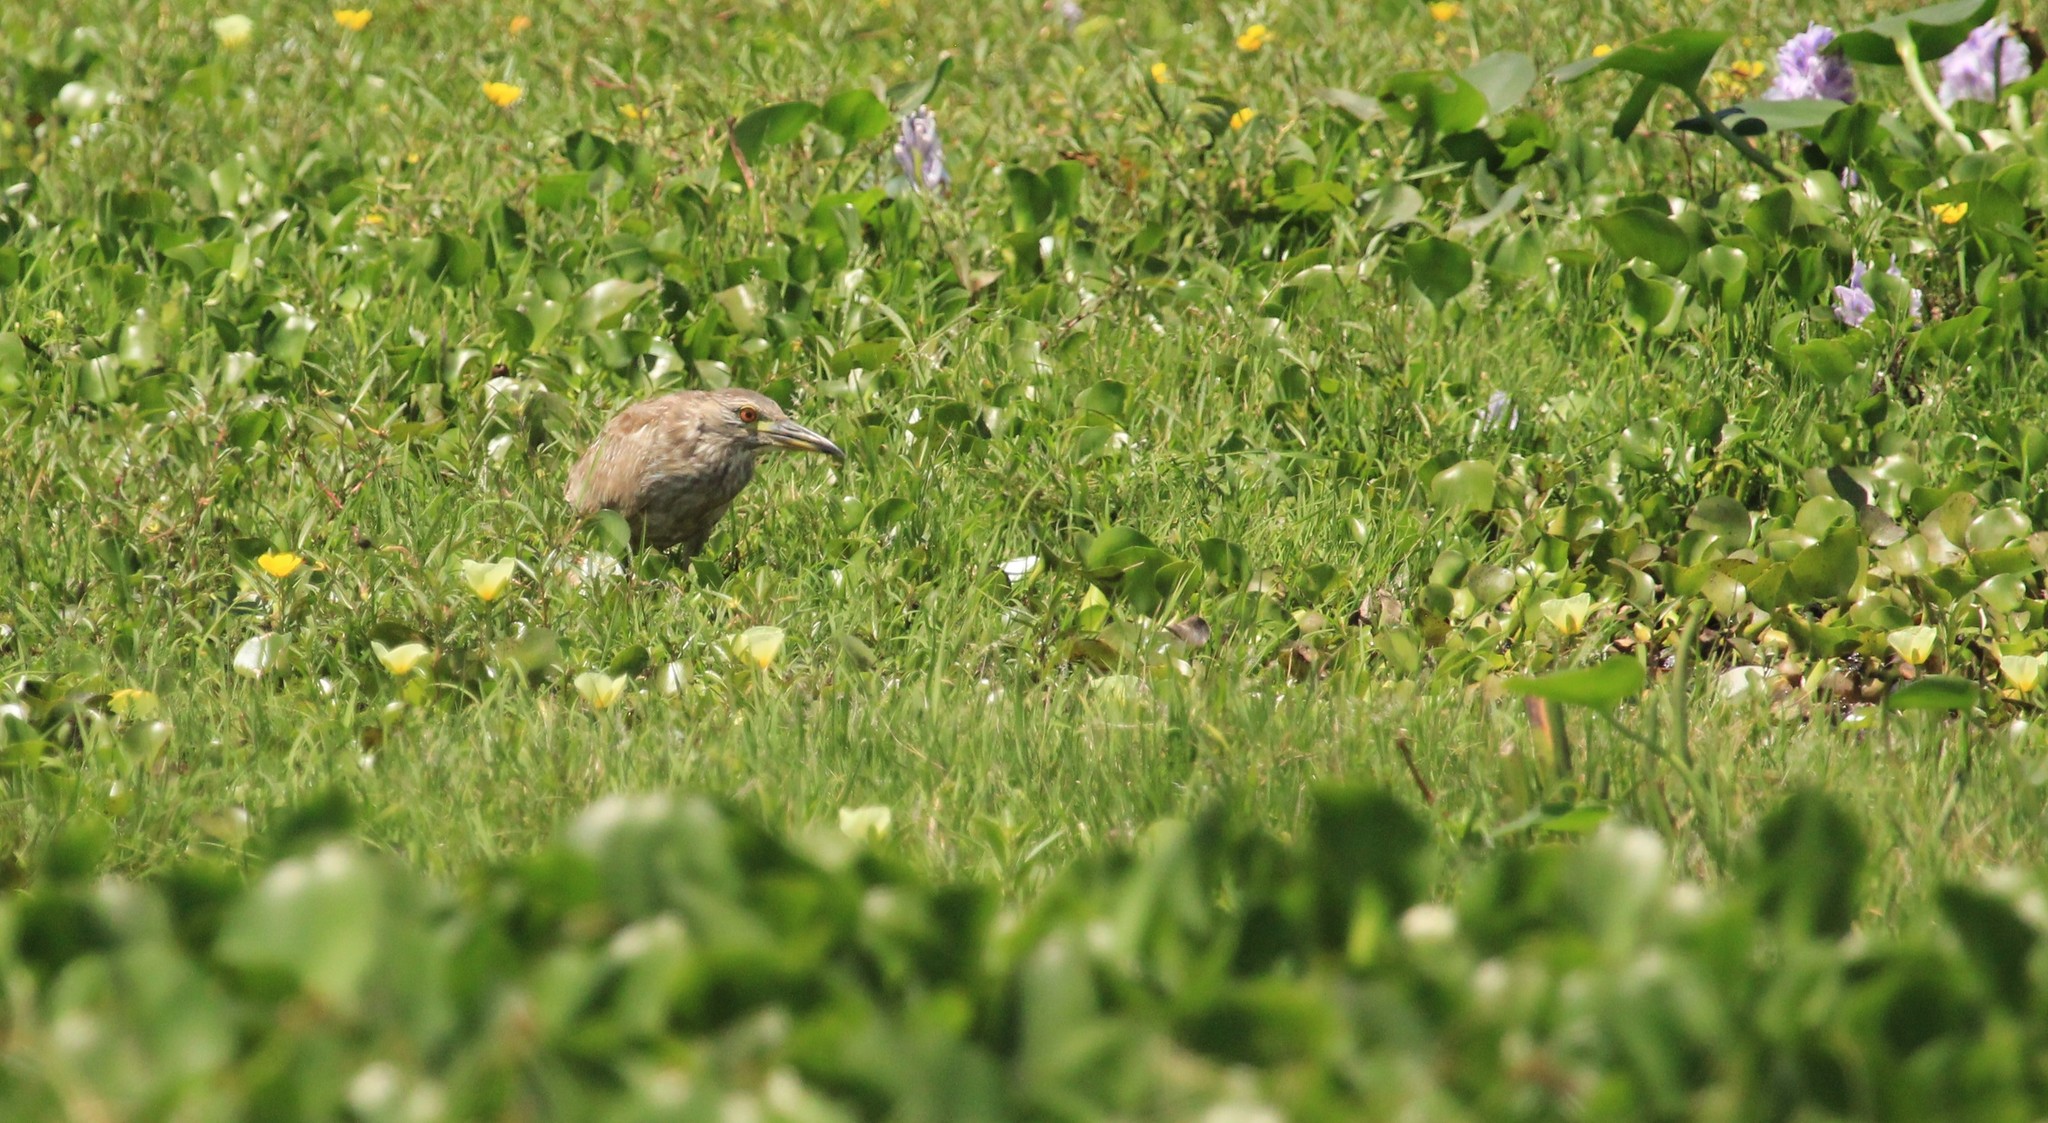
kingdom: Animalia
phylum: Chordata
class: Aves
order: Pelecaniformes
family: Ardeidae
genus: Nycticorax
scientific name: Nycticorax nycticorax
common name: Black-crowned night heron
